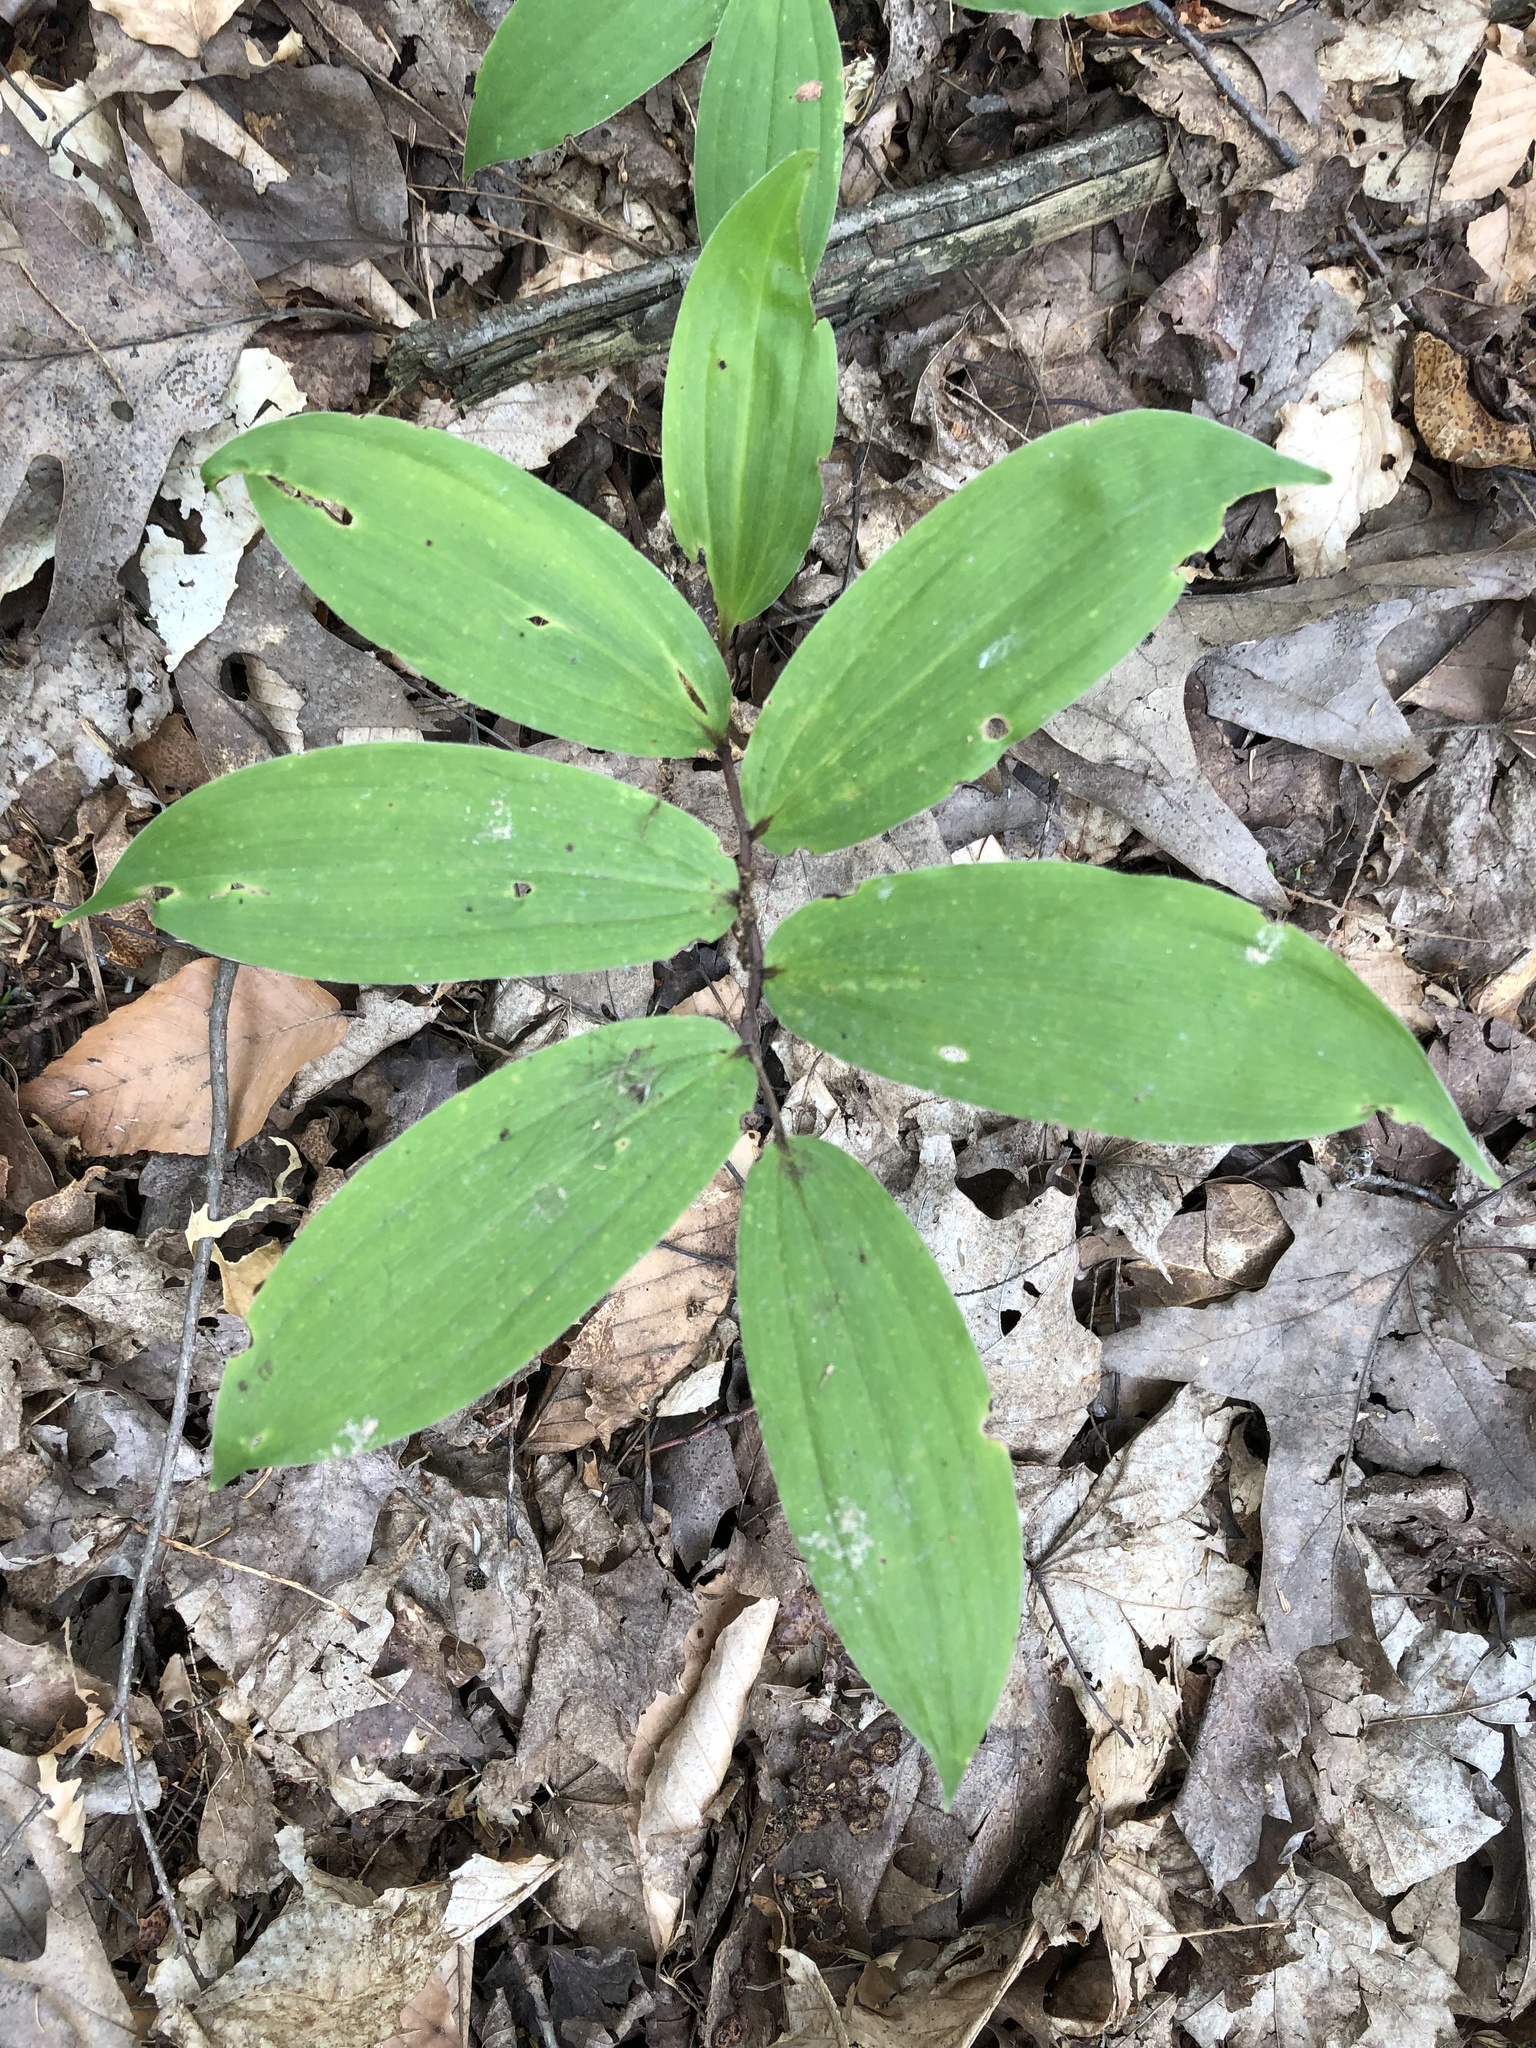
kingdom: Plantae
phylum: Tracheophyta
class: Liliopsida
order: Asparagales
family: Asparagaceae
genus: Maianthemum
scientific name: Maianthemum racemosum
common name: False spikenard
